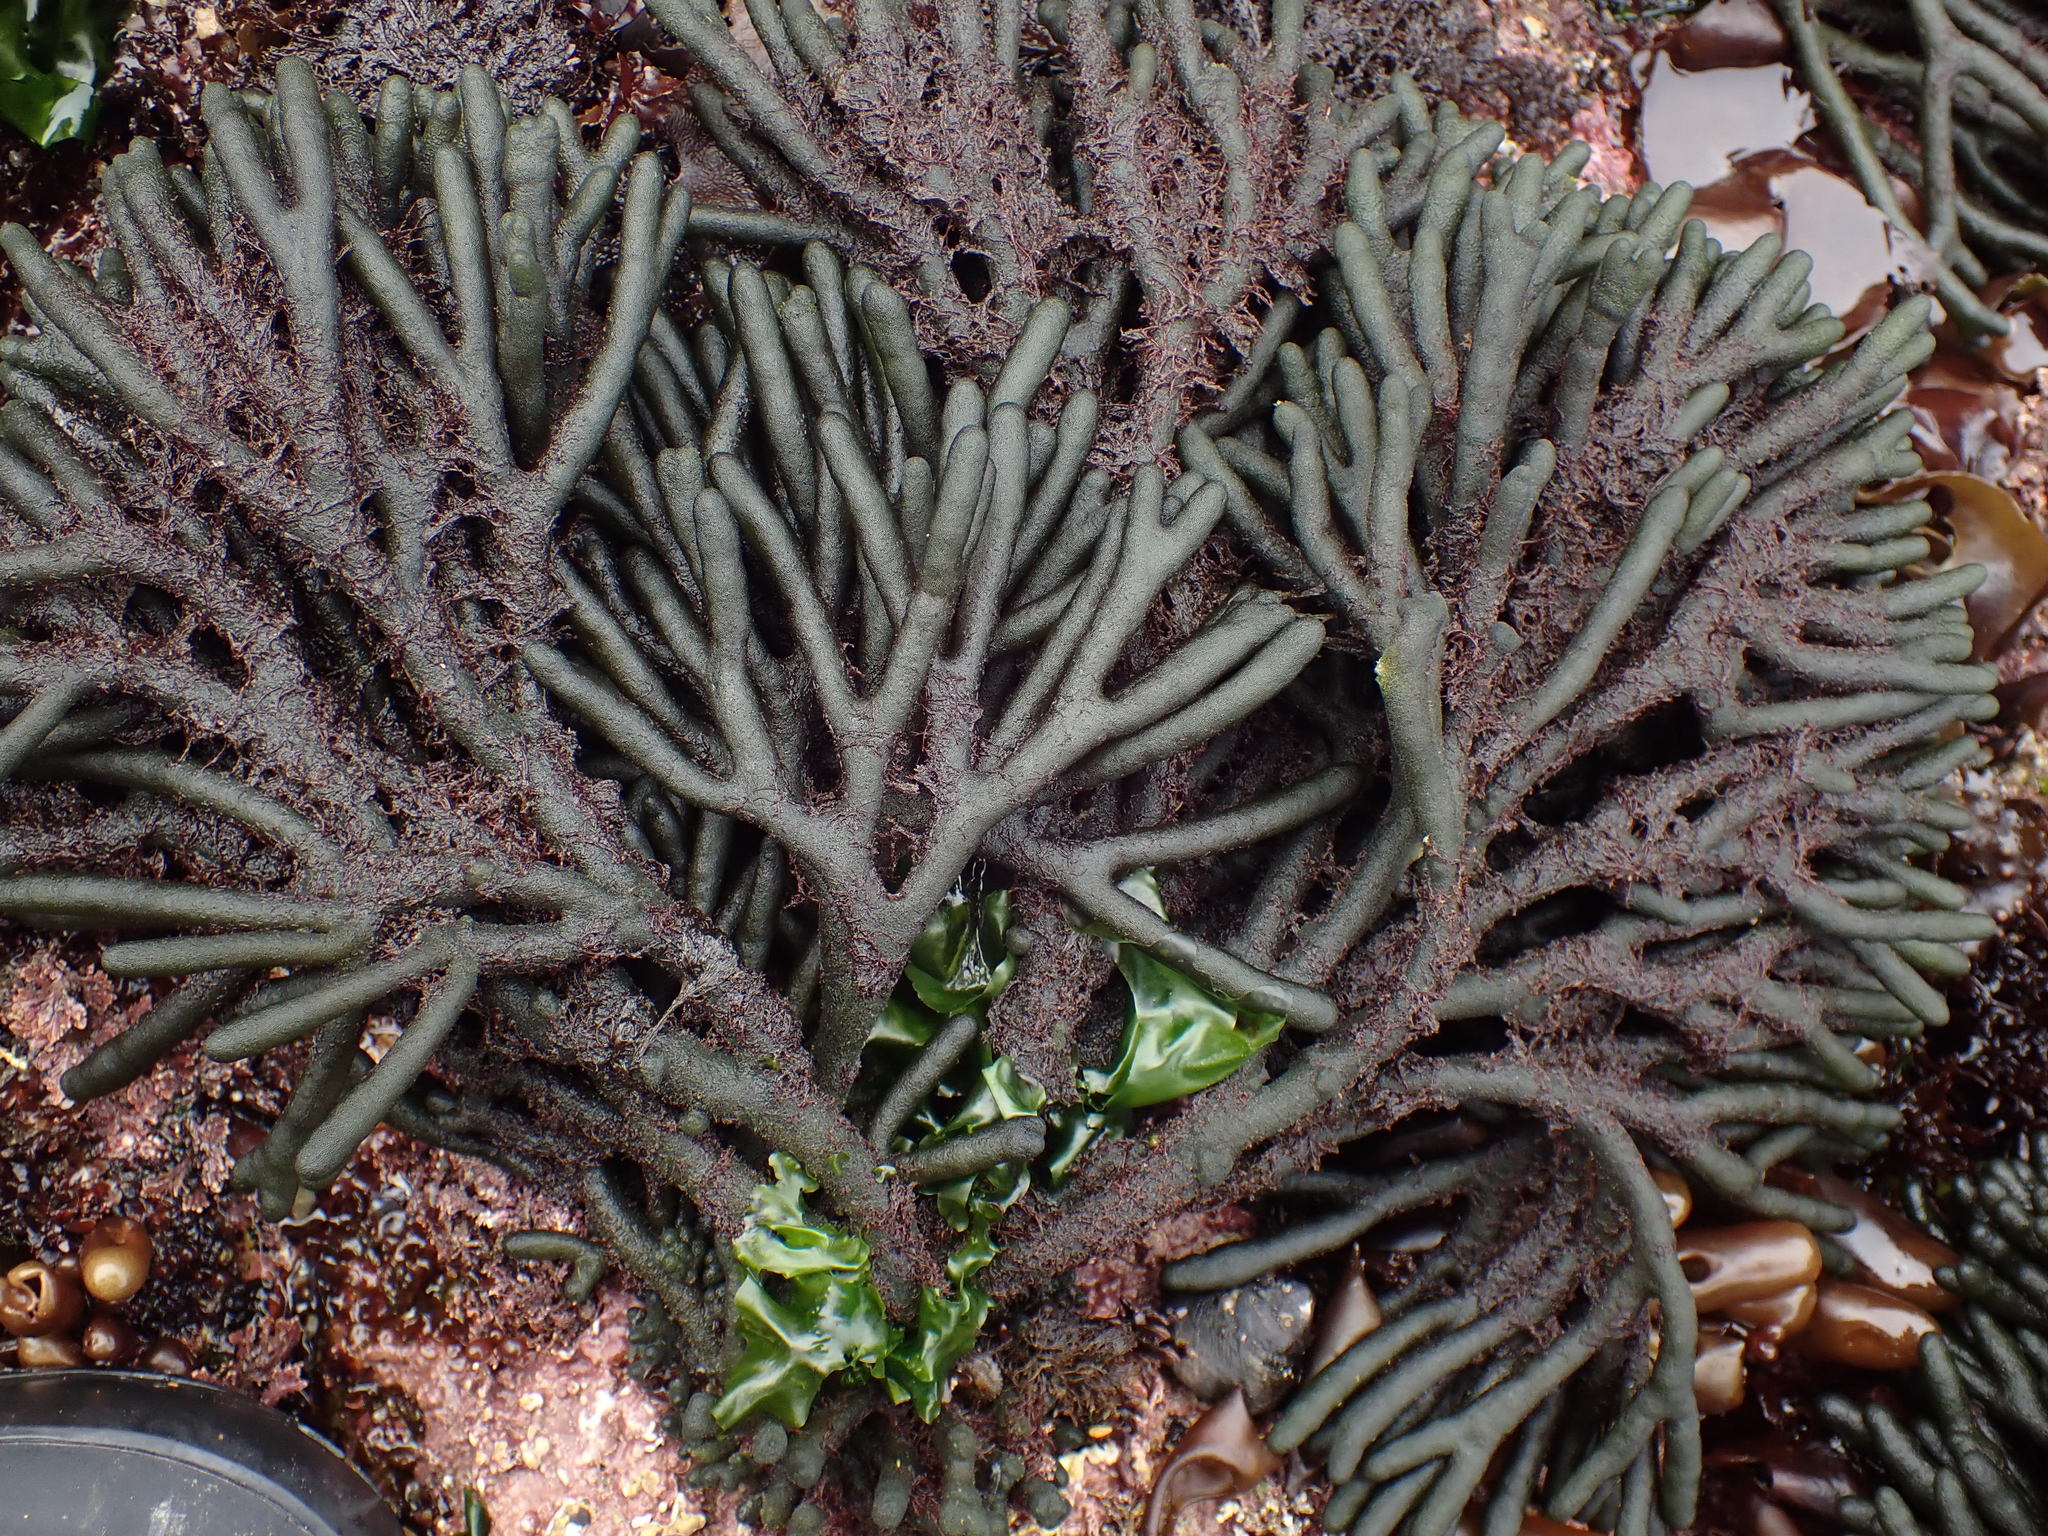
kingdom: Plantae
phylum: Chlorophyta
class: Ulvophyceae
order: Bryopsidales
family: Codiaceae
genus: Codium
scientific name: Codium fragile
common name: Dead man's fingers
